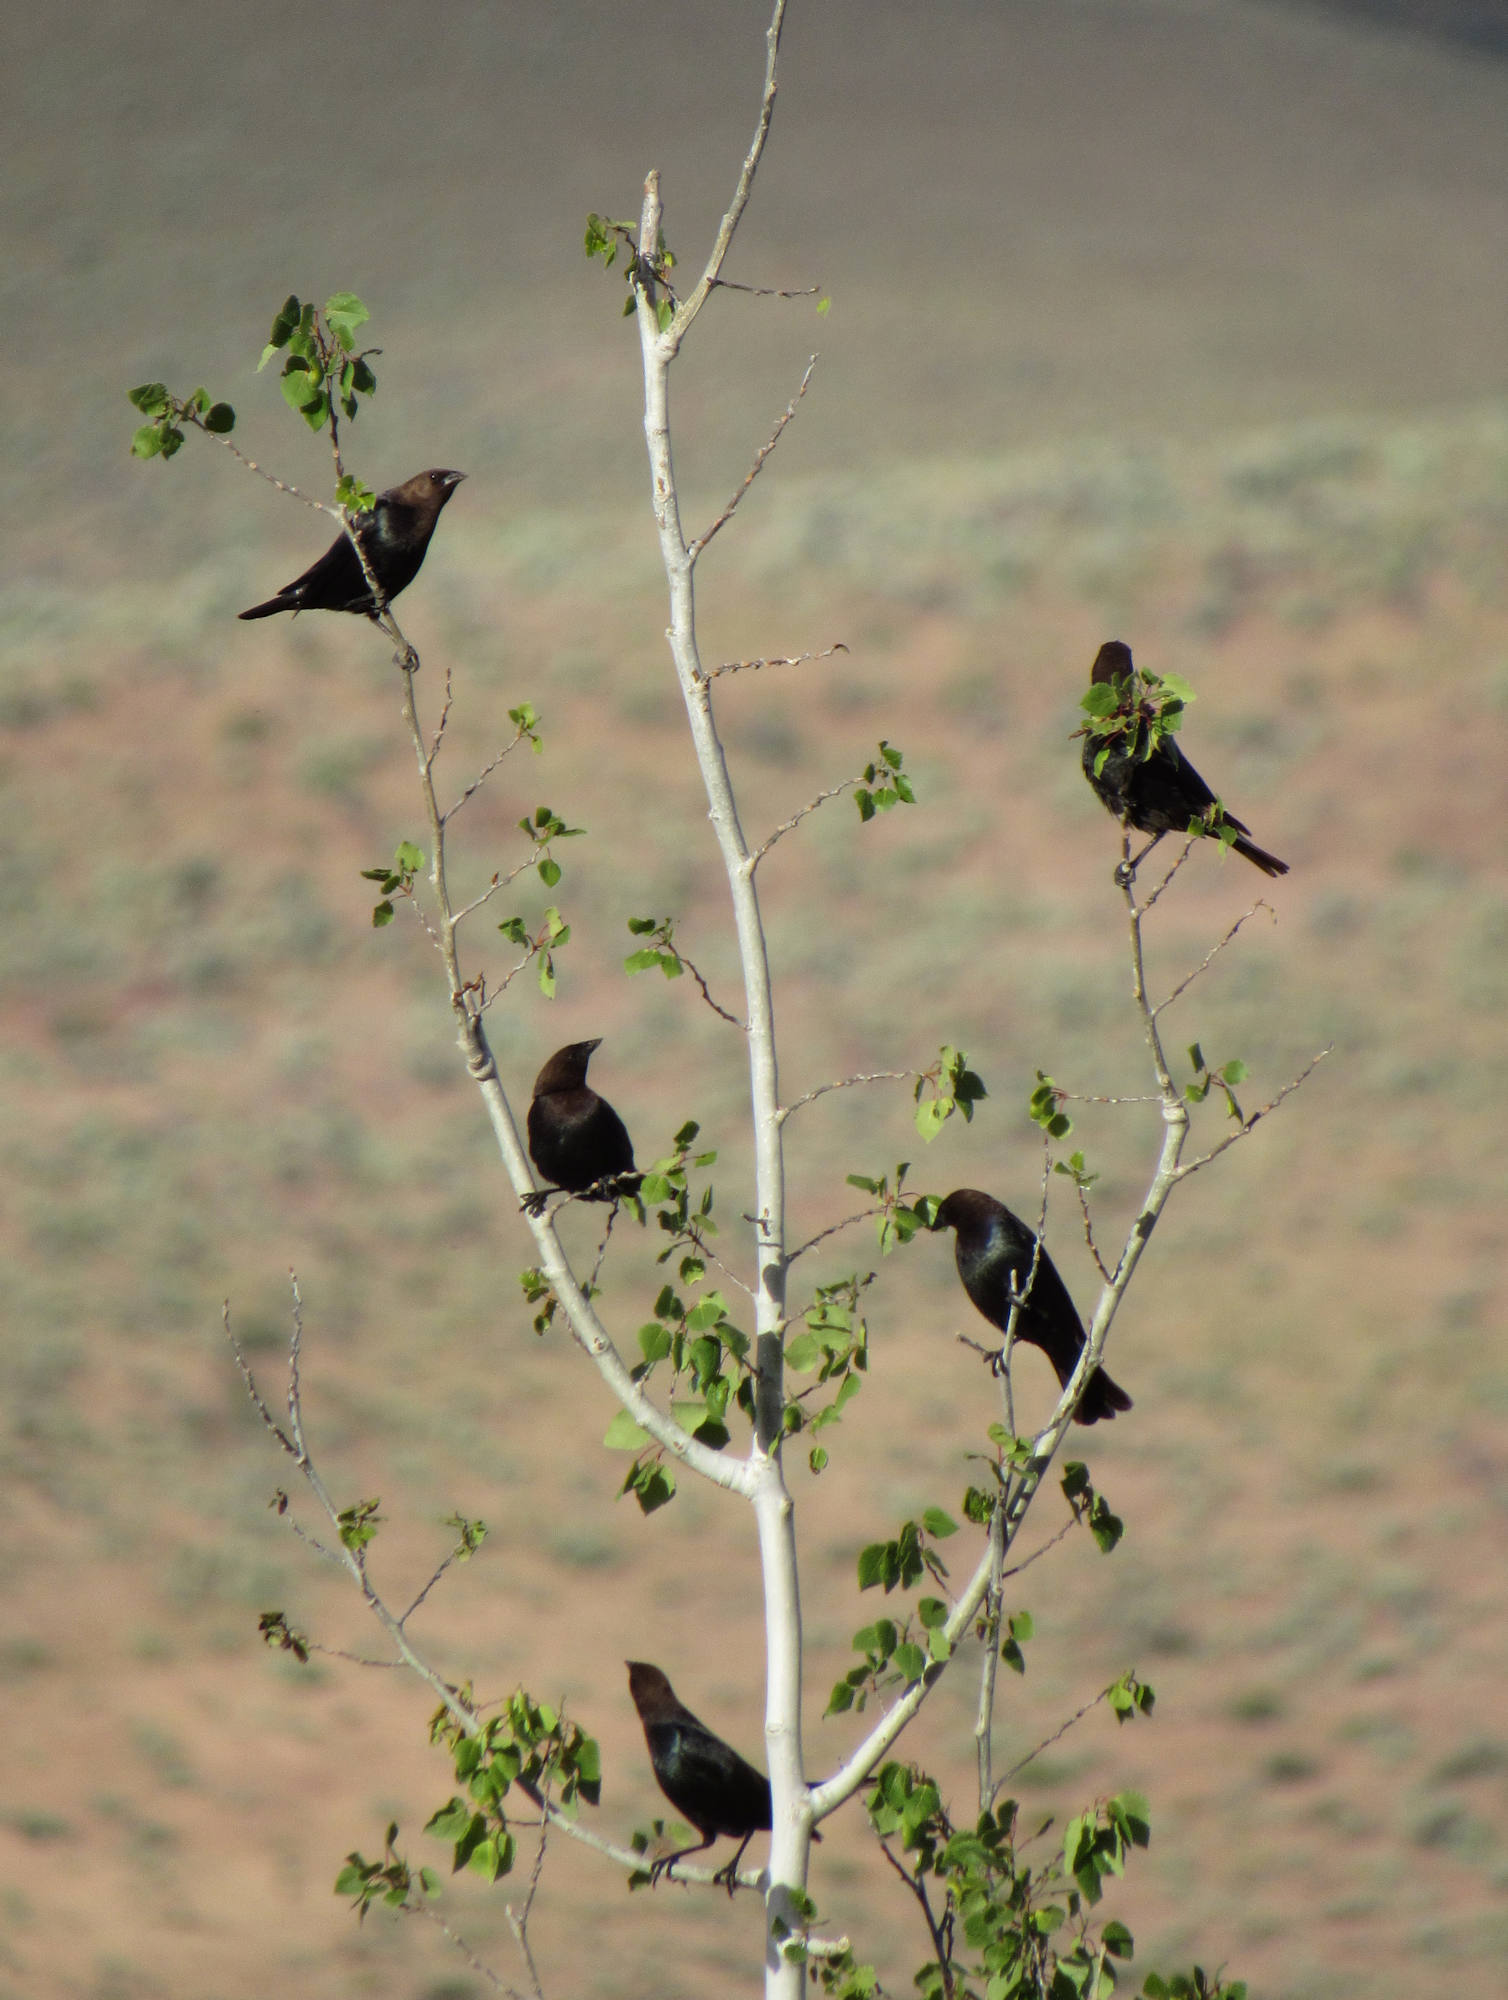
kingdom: Animalia
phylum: Chordata
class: Aves
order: Passeriformes
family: Icteridae
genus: Molothrus
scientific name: Molothrus ater
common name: Brown-headed cowbird
